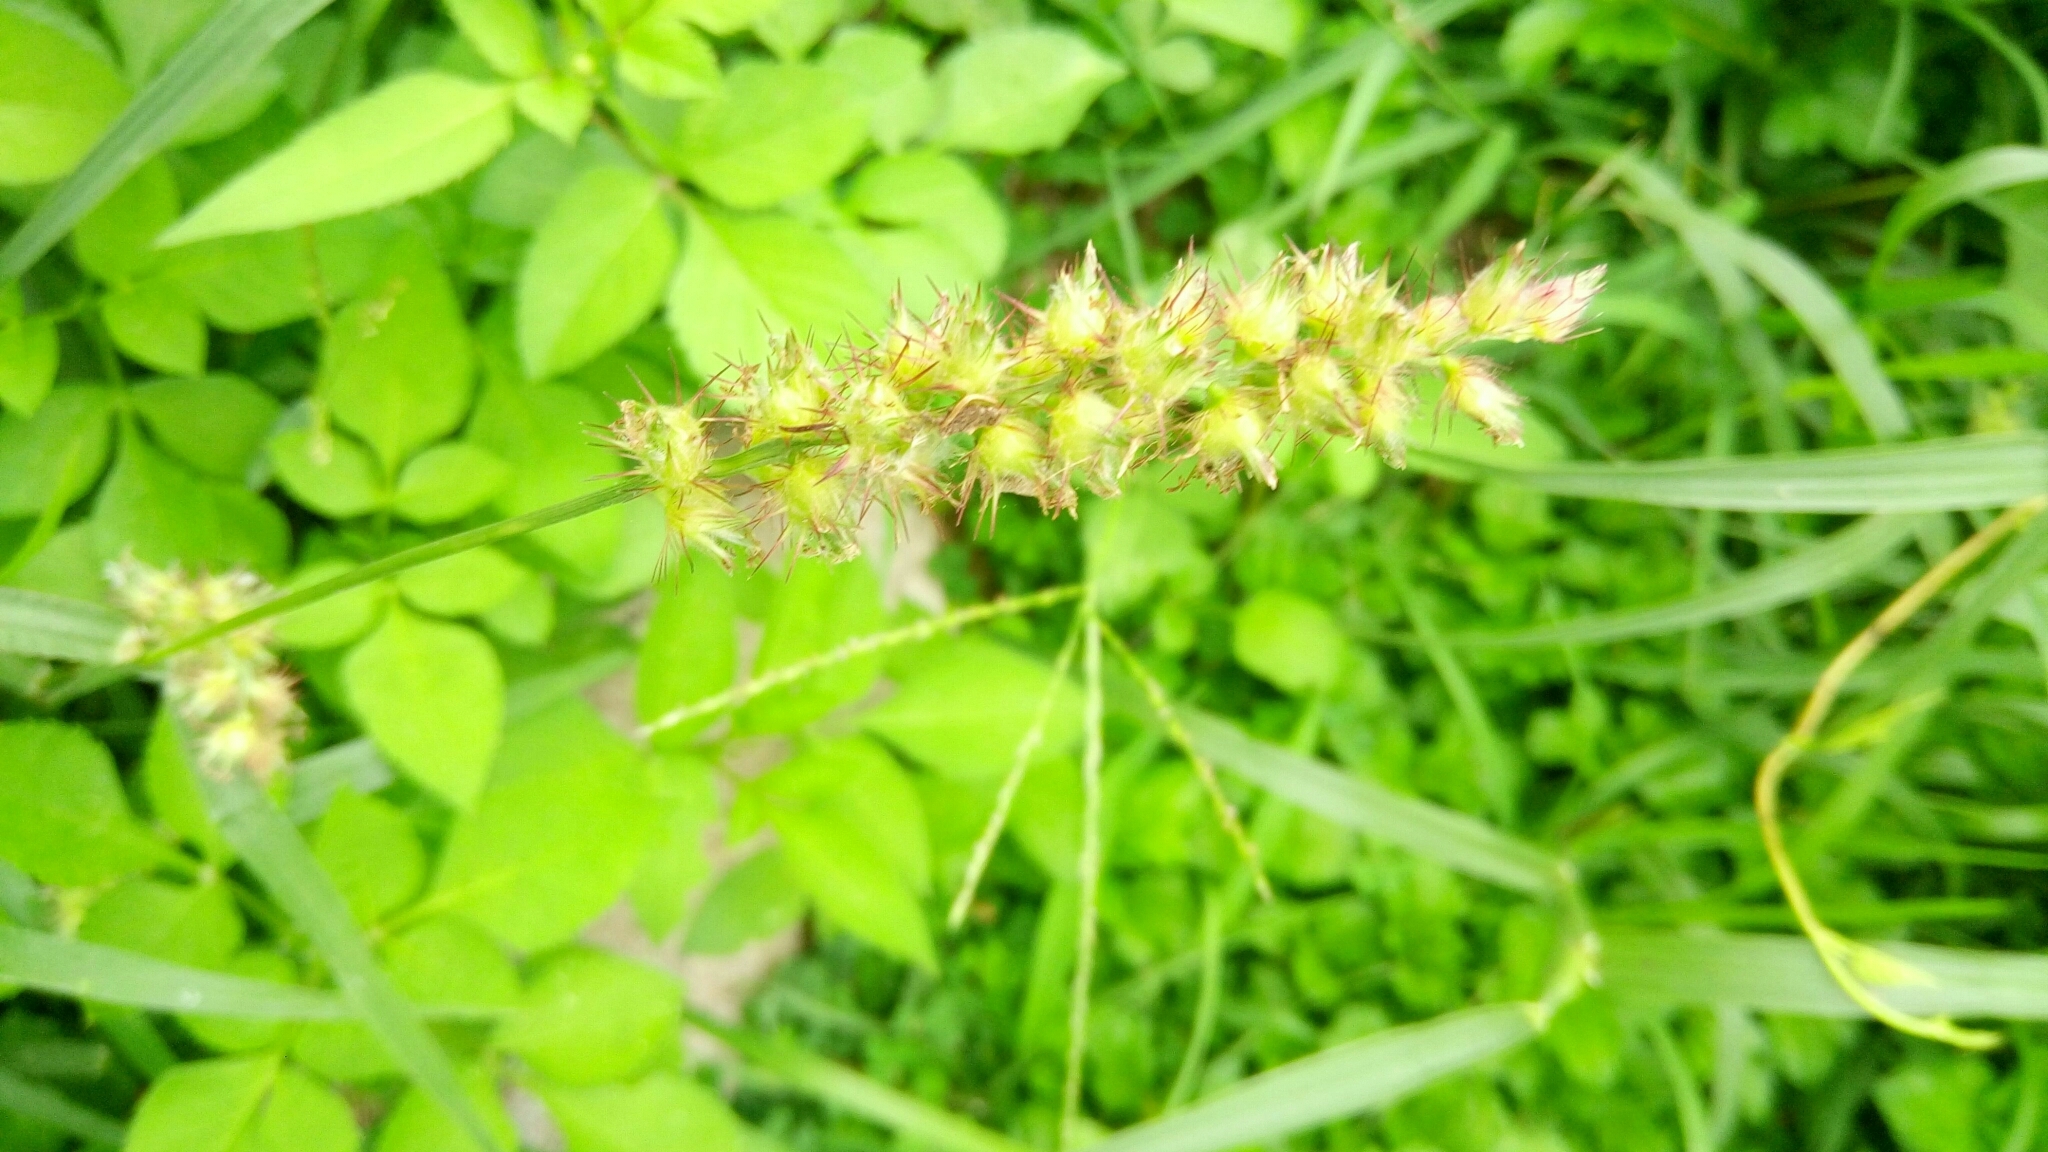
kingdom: Plantae
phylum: Tracheophyta
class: Liliopsida
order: Poales
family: Poaceae
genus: Cenchrus
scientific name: Cenchrus echinatus
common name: Southern sandbur
